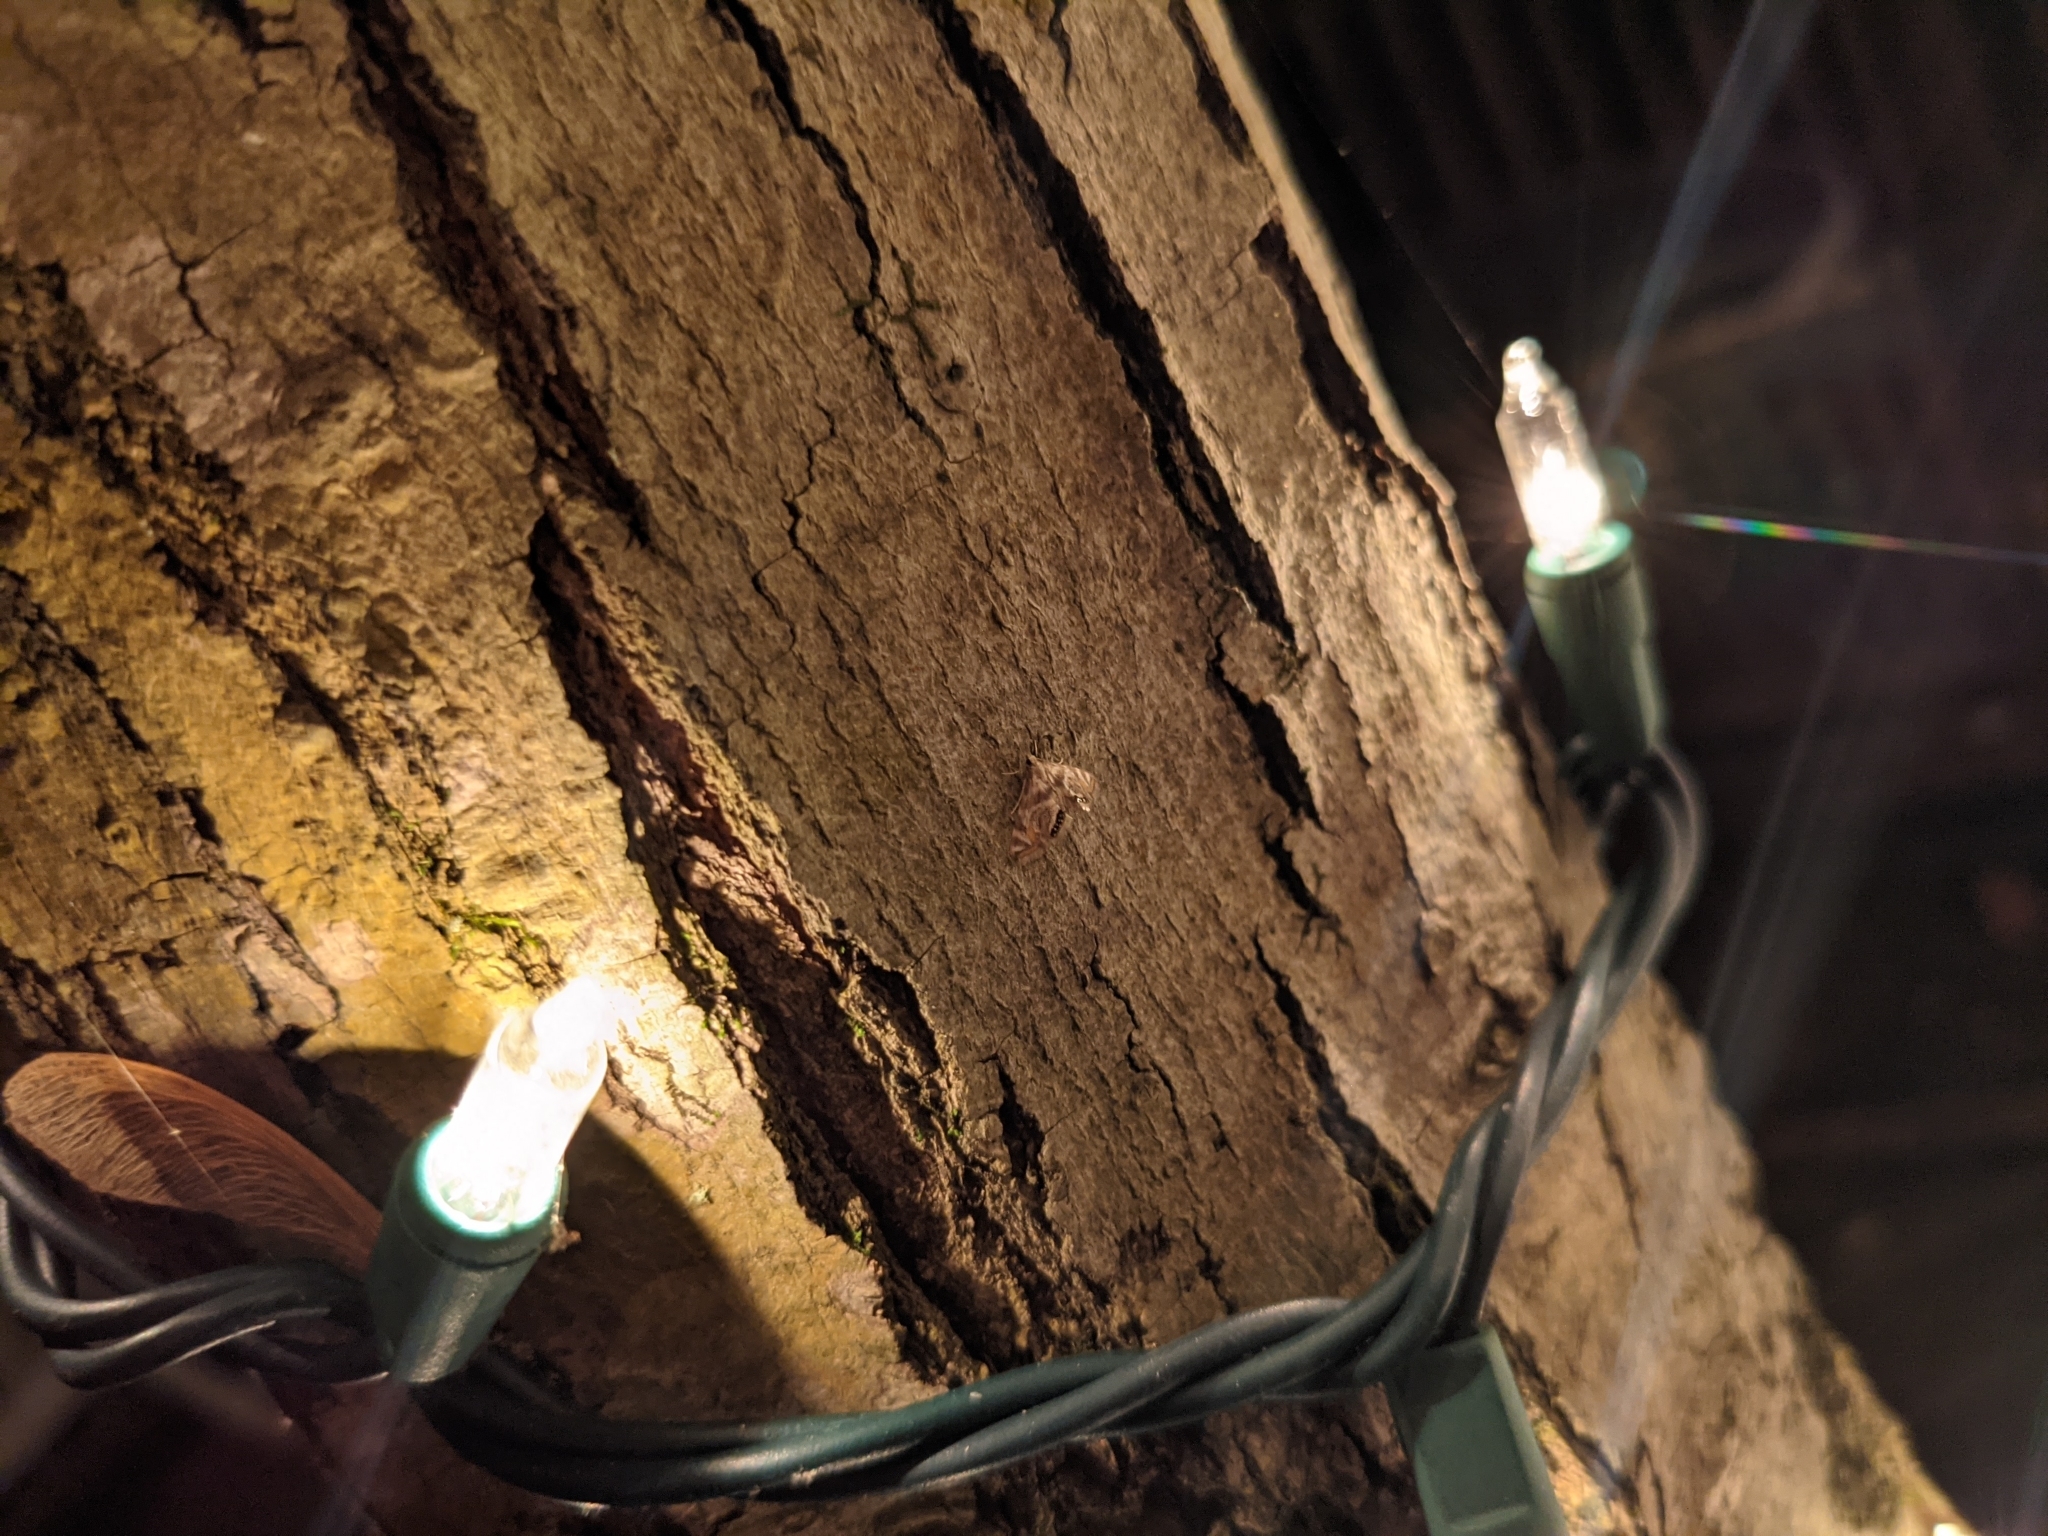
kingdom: Animalia
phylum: Arthropoda
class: Insecta
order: Lepidoptera
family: Crambidae
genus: Petrophila
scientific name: Petrophila canadensis
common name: Canadian petrophila
